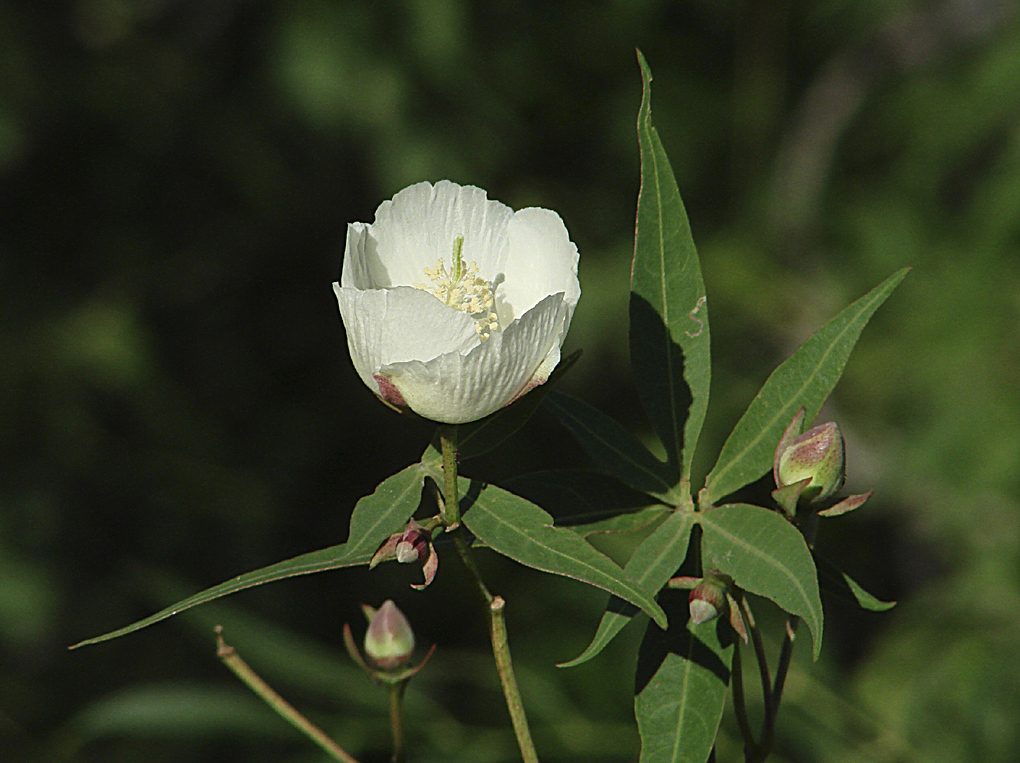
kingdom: Plantae
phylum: Tracheophyta
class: Magnoliopsida
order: Malvales
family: Malvaceae
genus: Gossypium
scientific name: Gossypium thurberi
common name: Desert cotton
